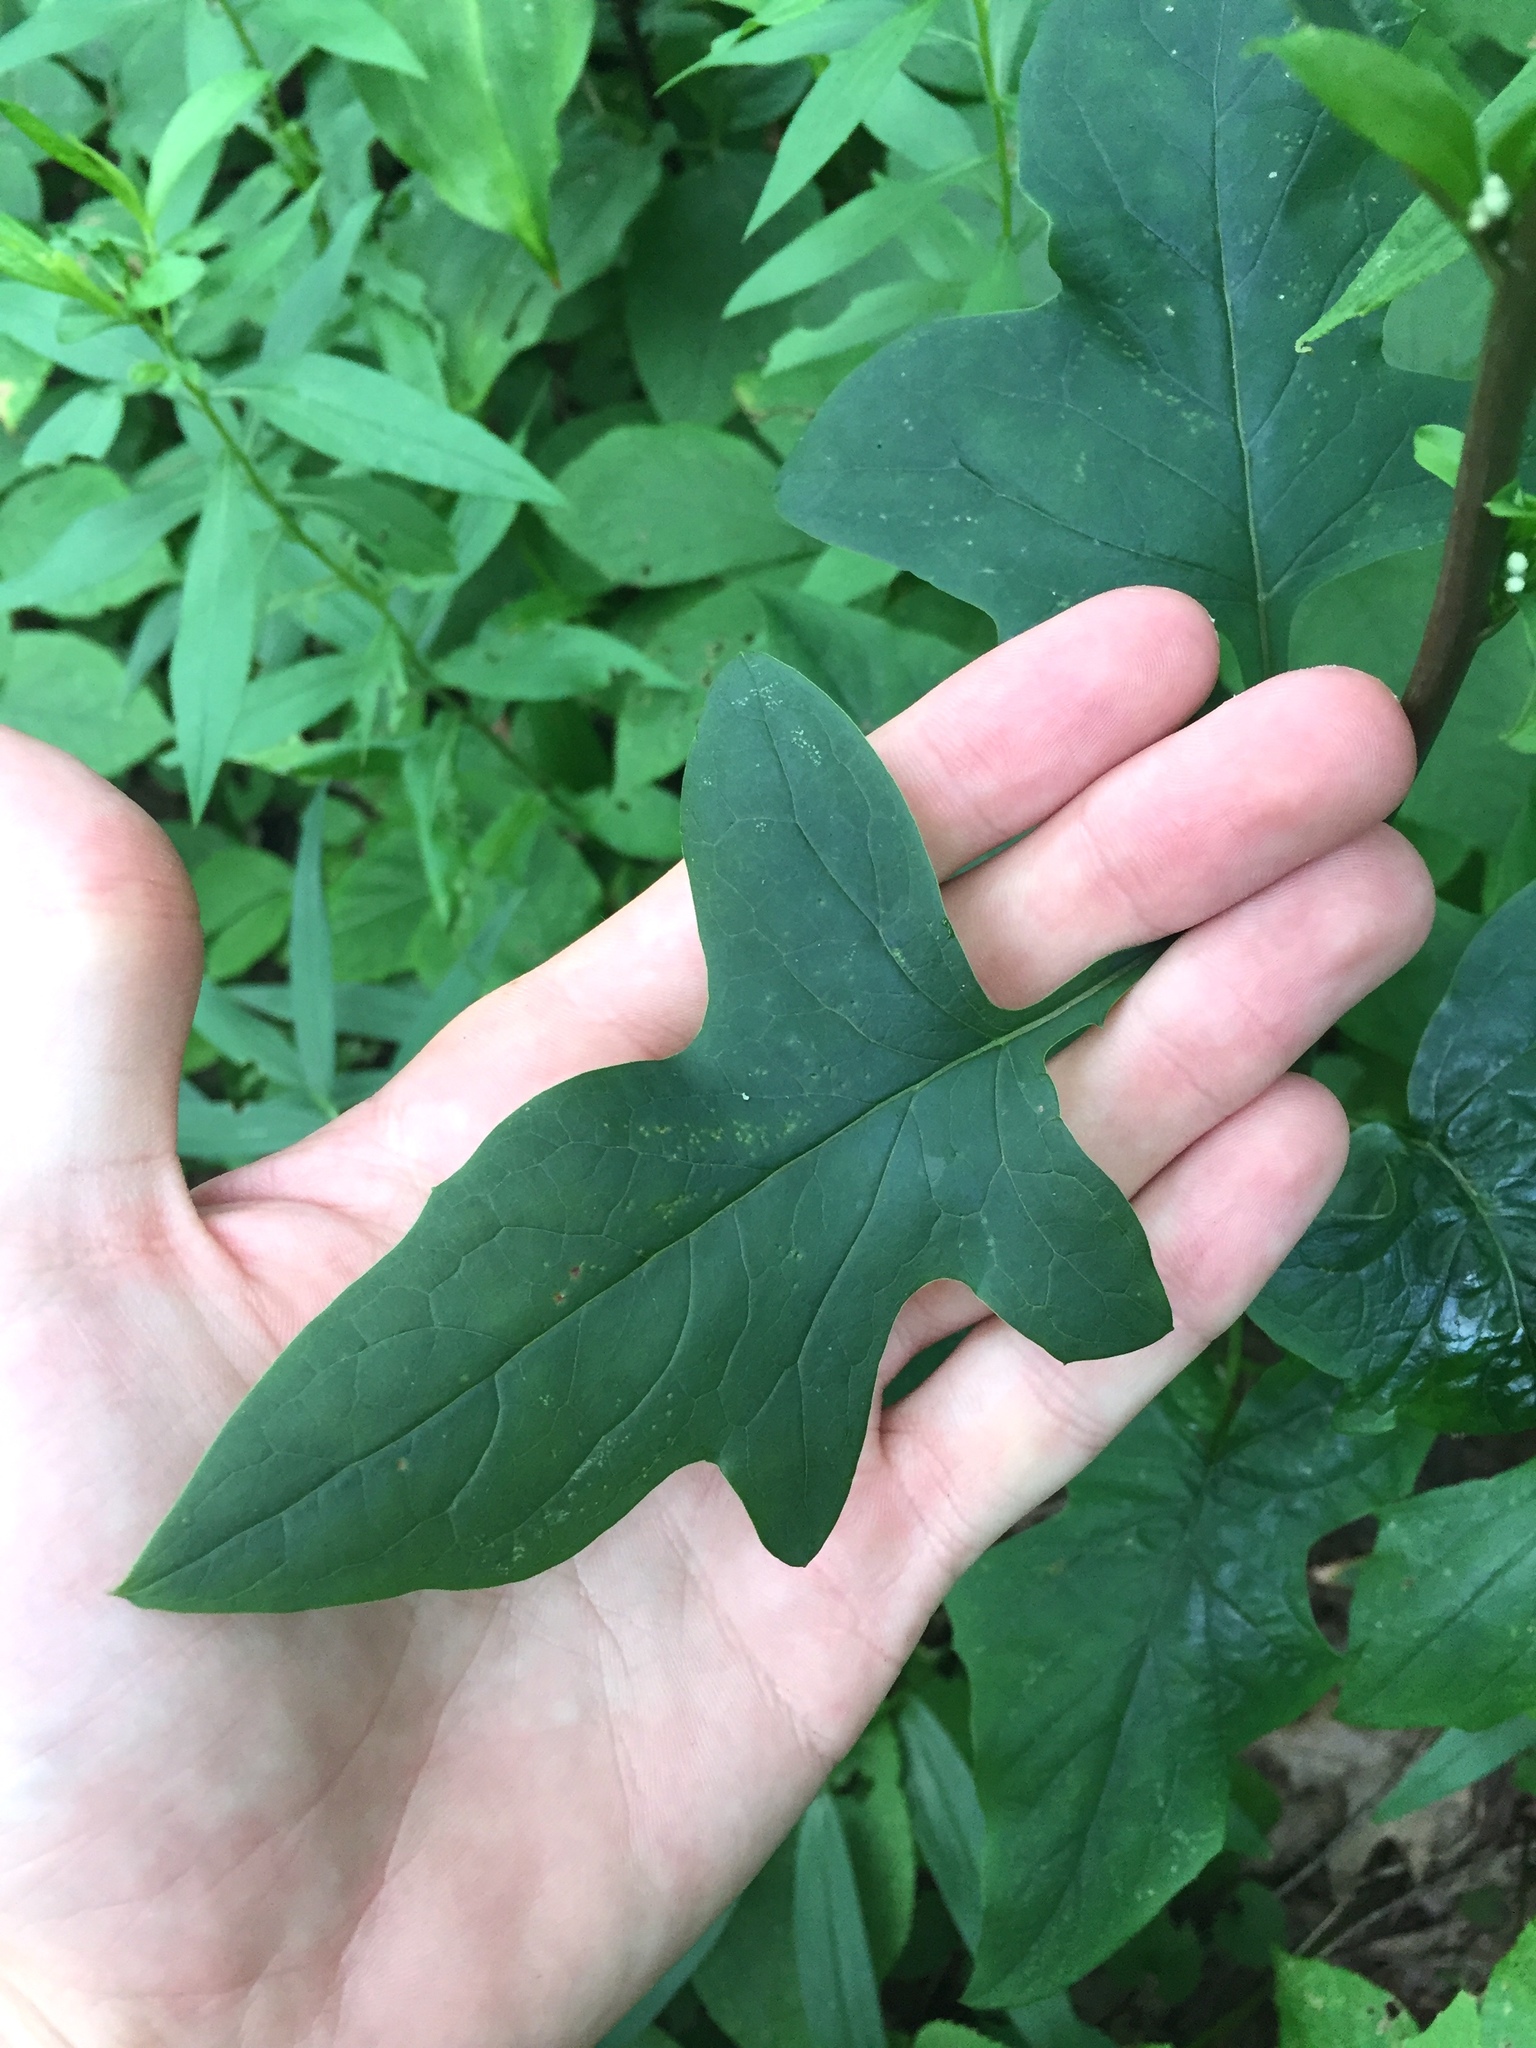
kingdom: Plantae
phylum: Tracheophyta
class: Magnoliopsida
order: Asterales
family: Asteraceae
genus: Nabalus
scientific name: Nabalus albus
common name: White rattlesnakeroot
